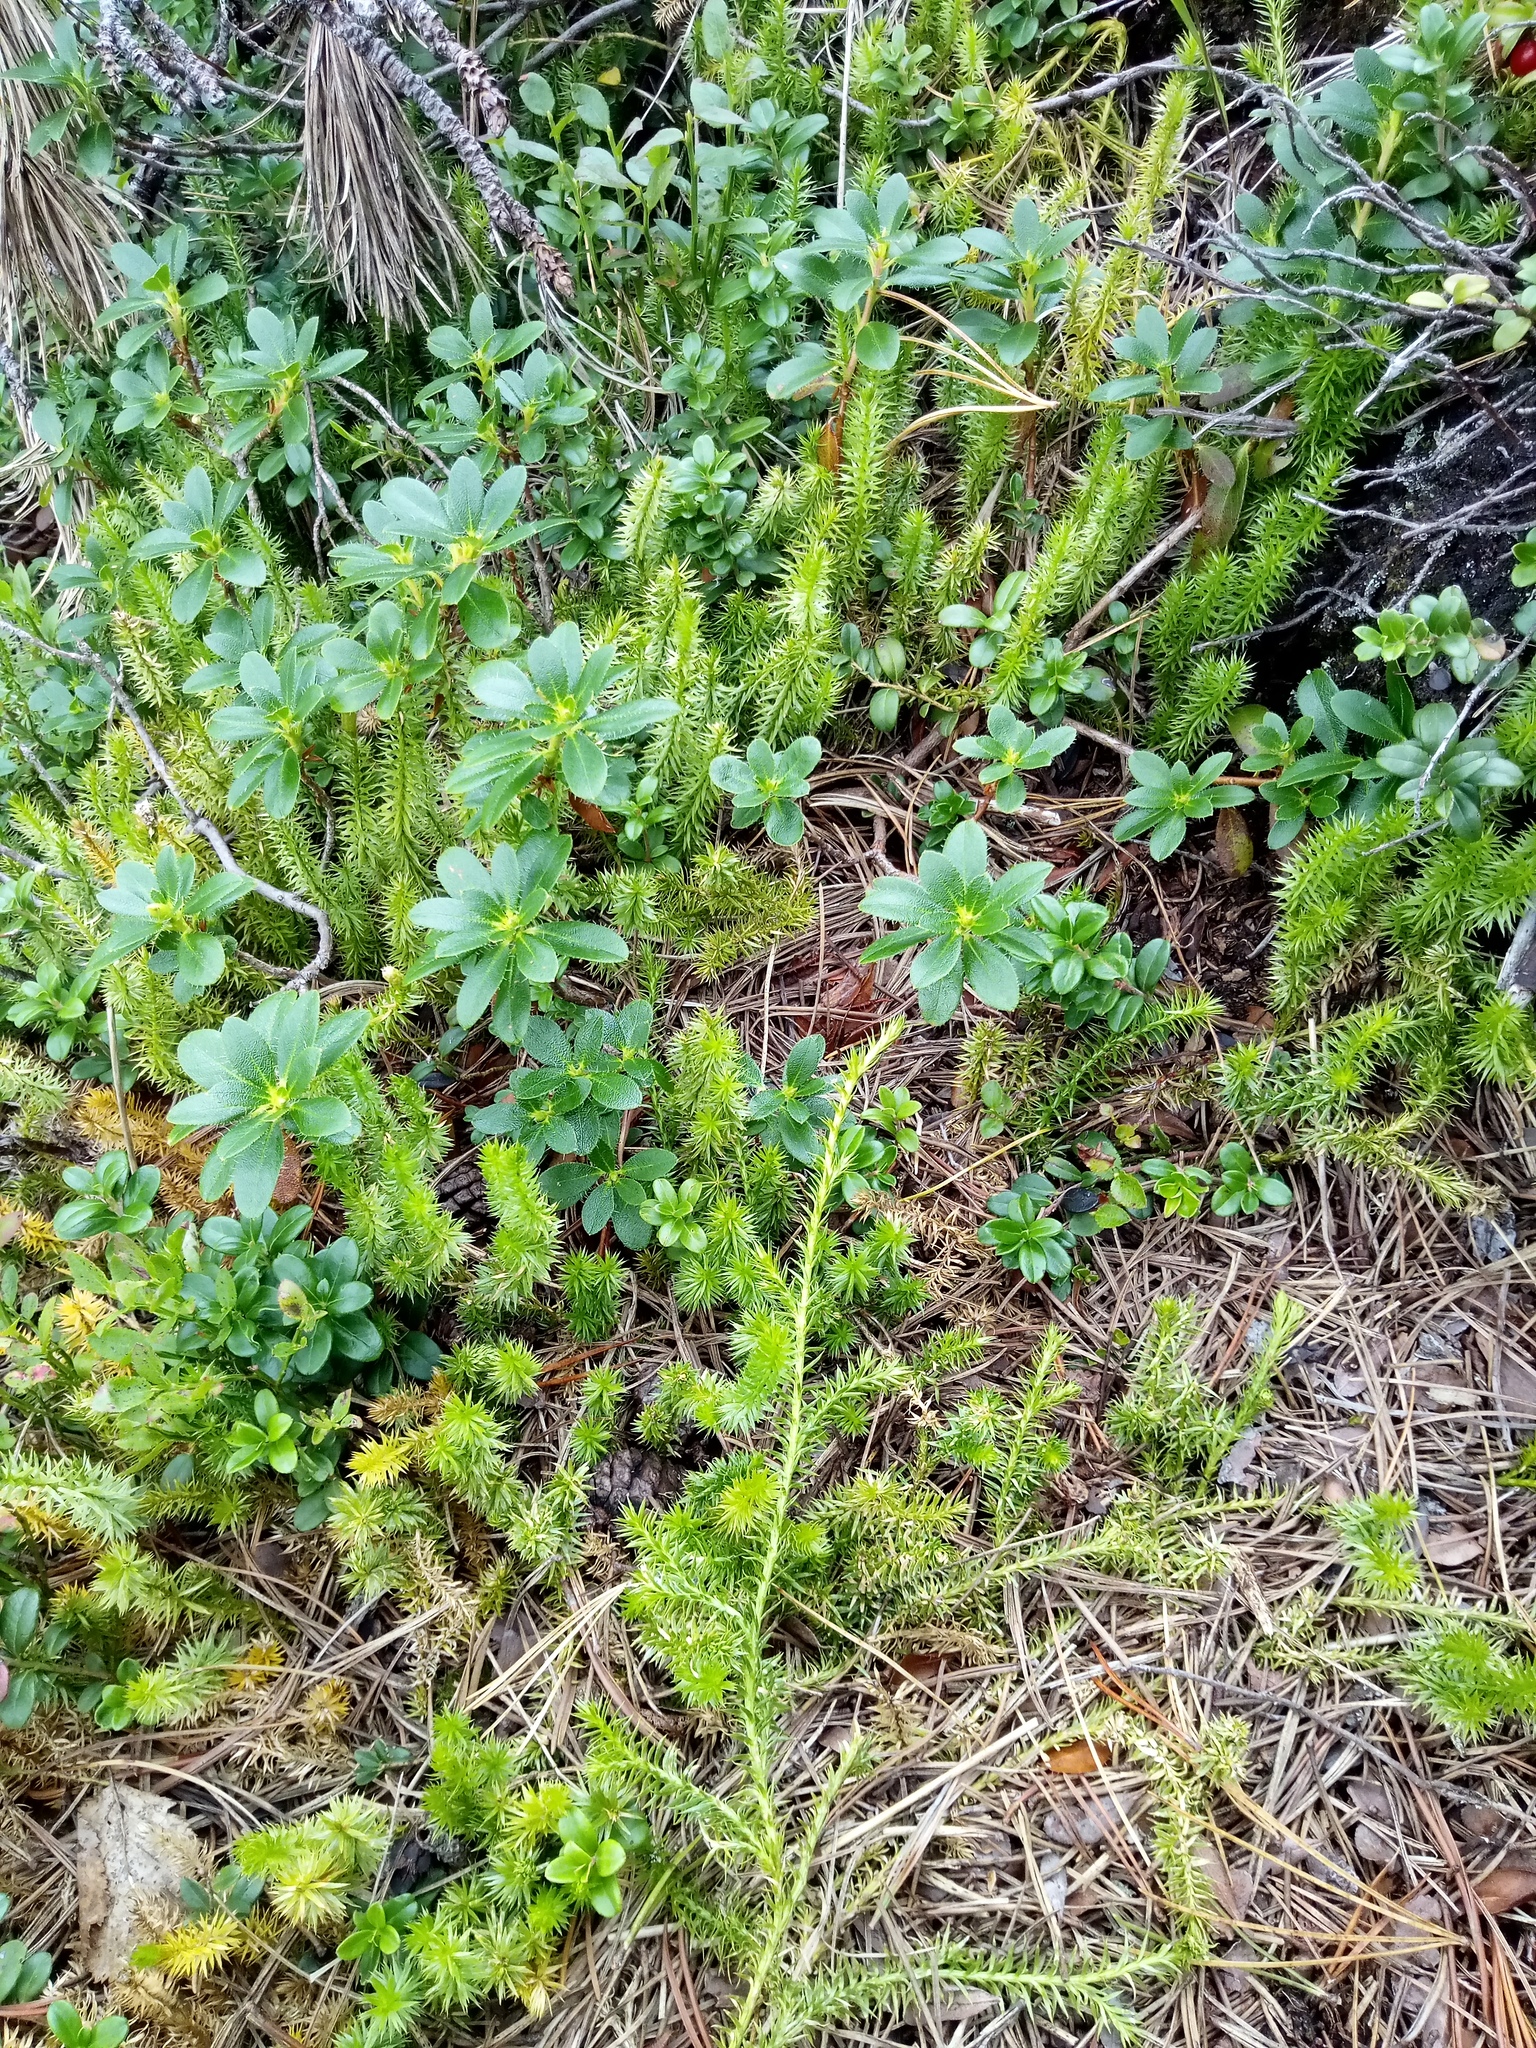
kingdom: Plantae
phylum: Tracheophyta
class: Lycopodiopsida
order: Lycopodiales
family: Lycopodiaceae
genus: Spinulum
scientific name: Spinulum annotinum
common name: Interrupted club-moss
